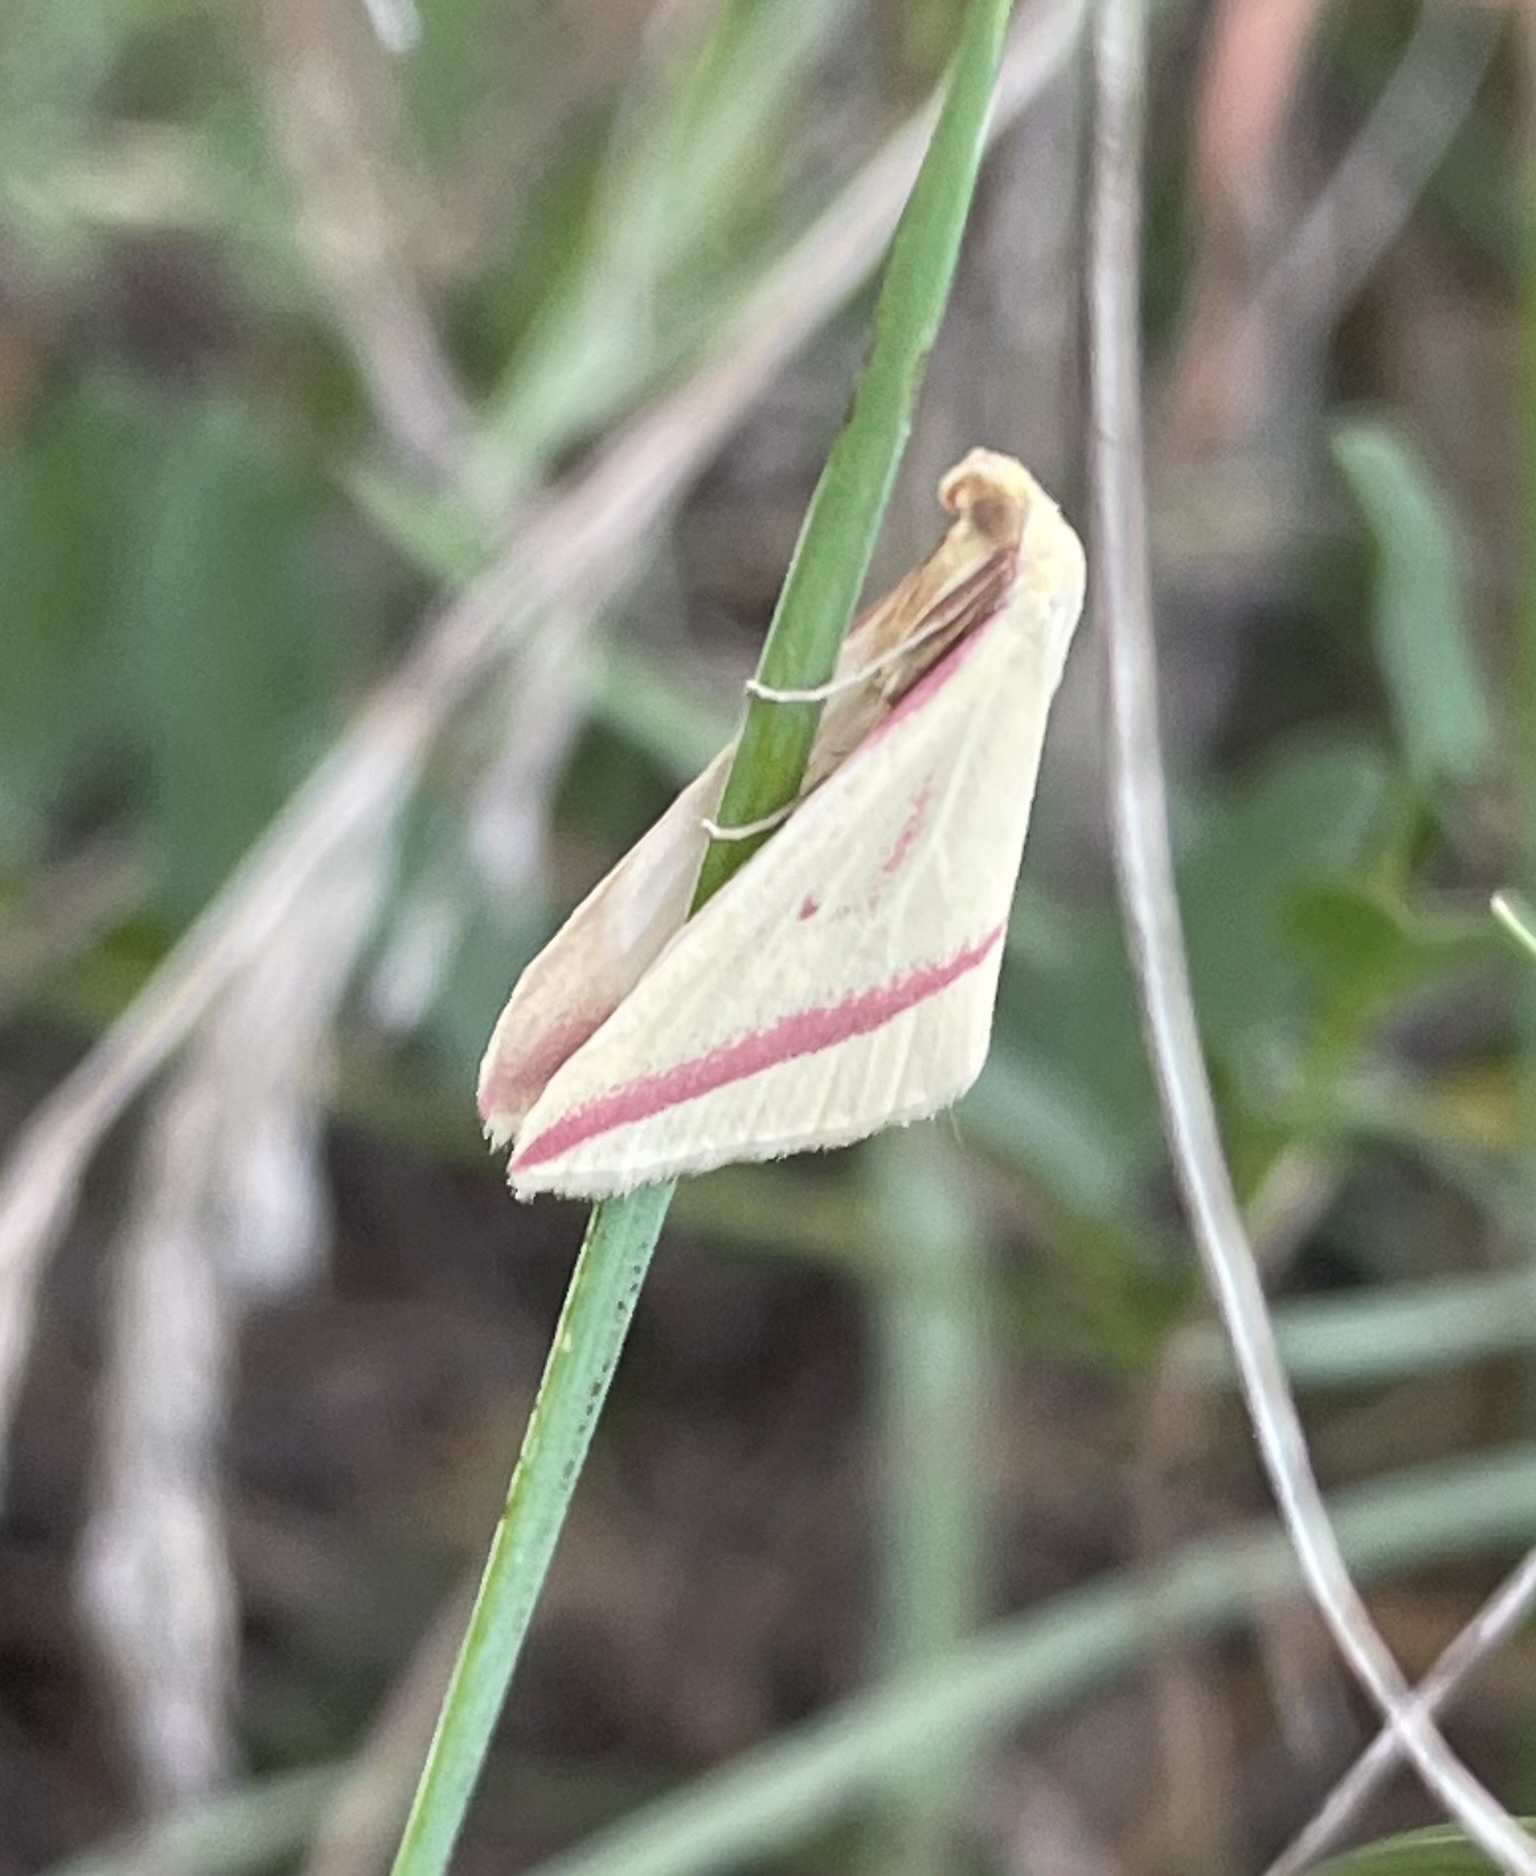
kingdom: Animalia
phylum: Arthropoda
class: Insecta
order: Lepidoptera
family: Geometridae
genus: Rhodometra
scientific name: Rhodometra sacraria
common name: Vestal
